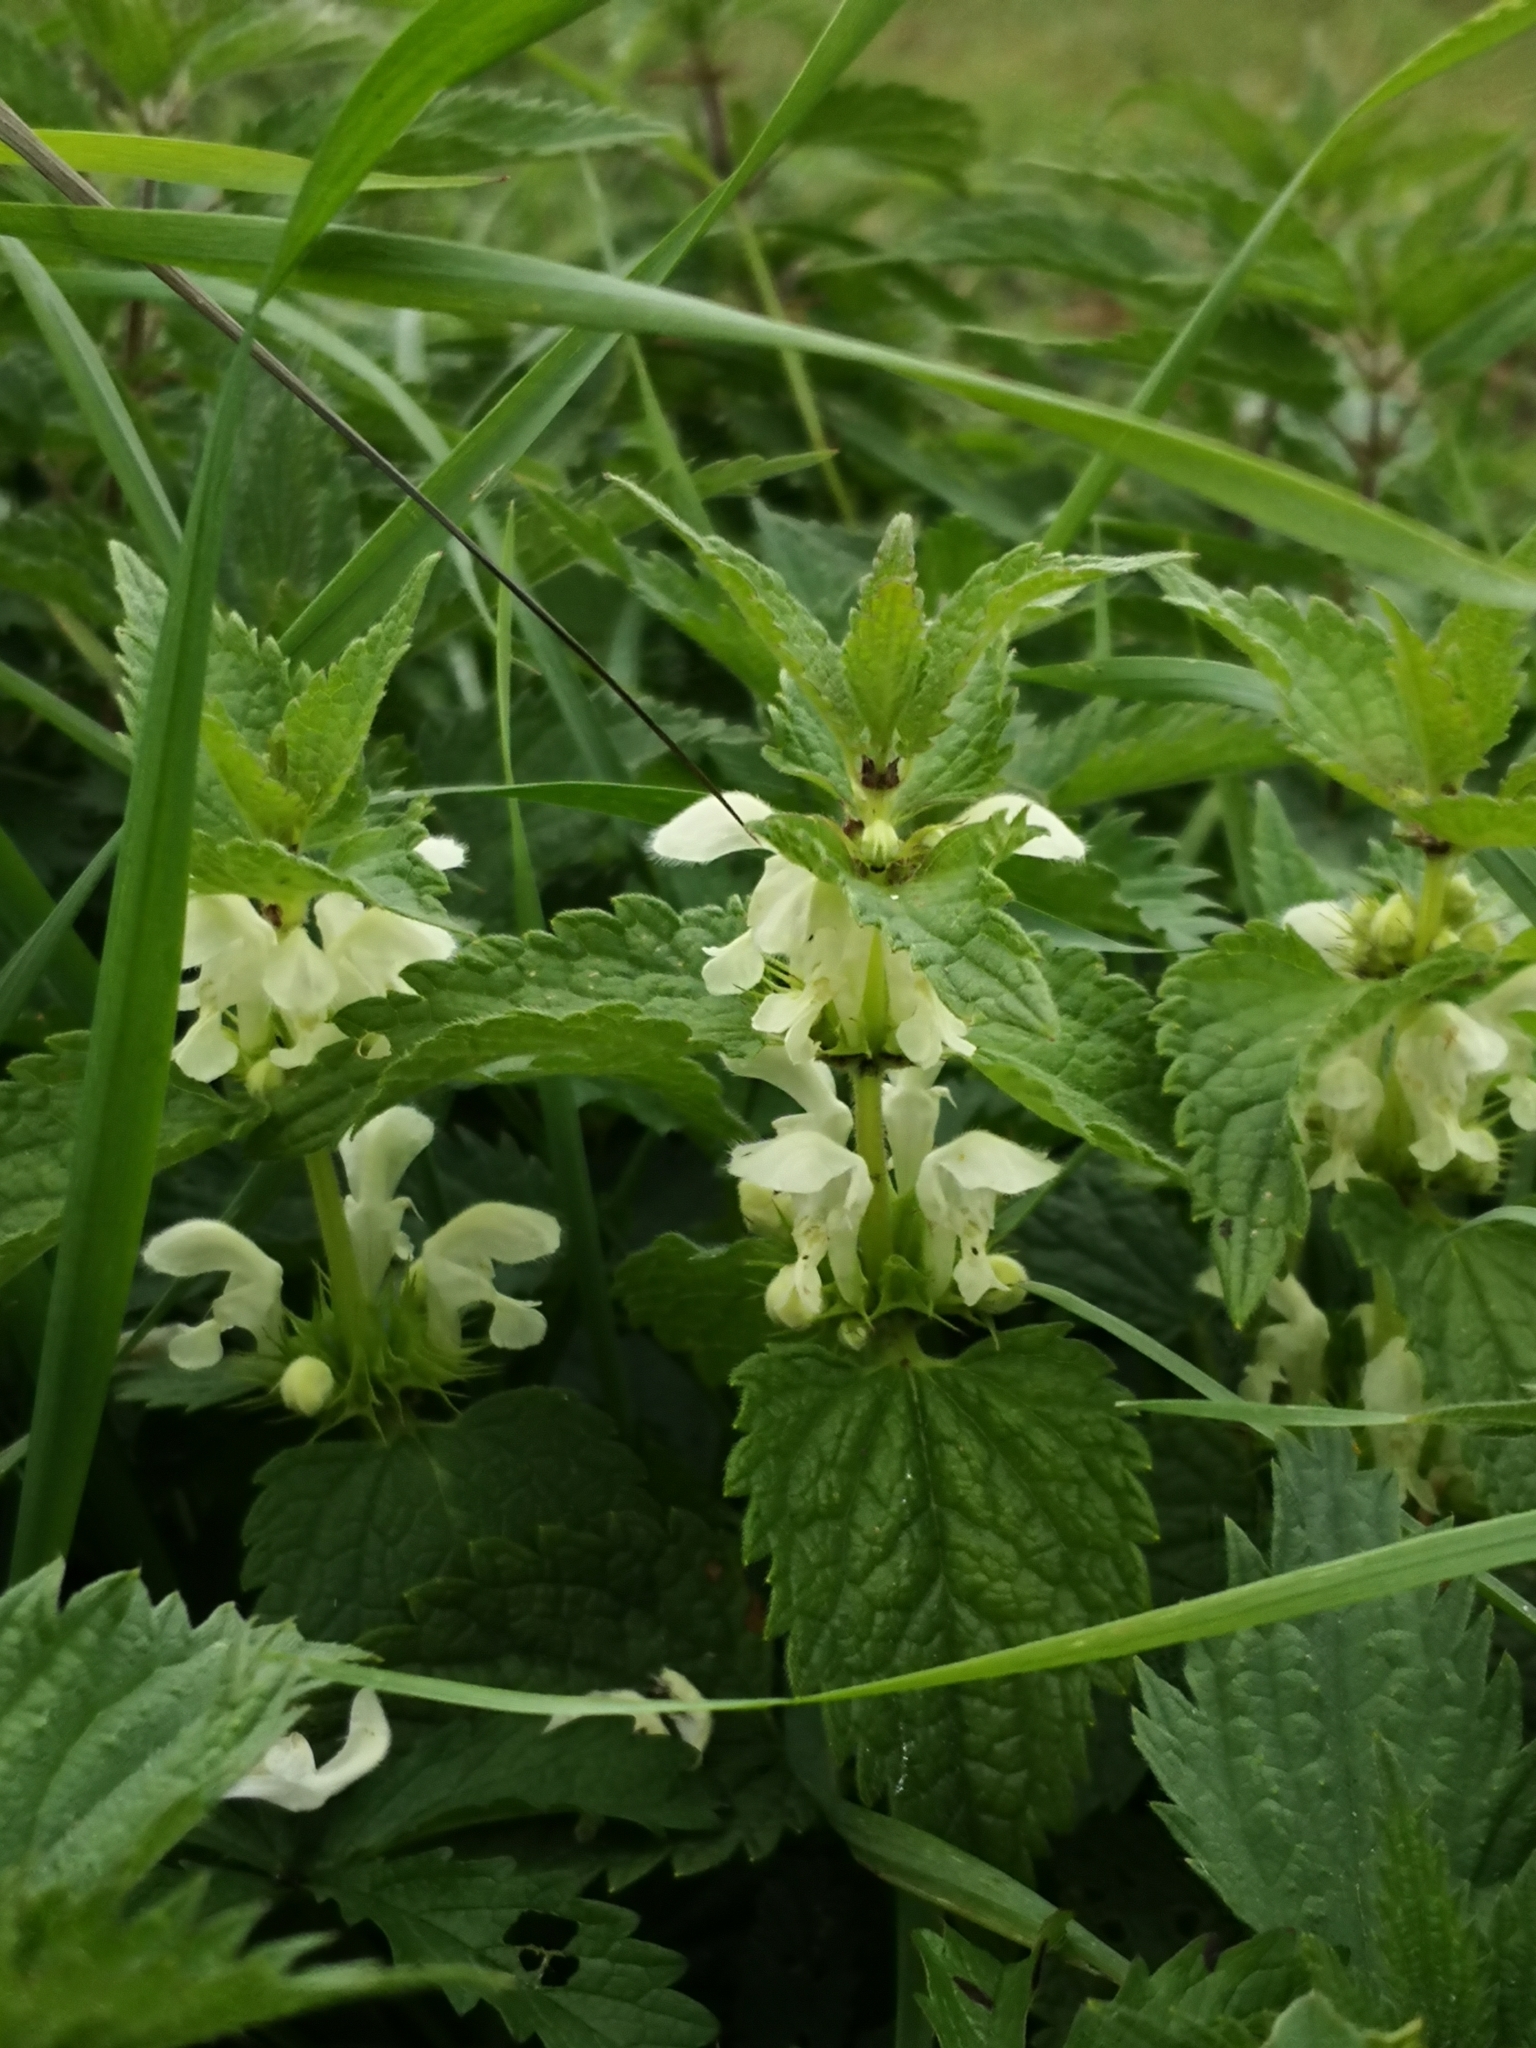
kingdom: Plantae
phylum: Tracheophyta
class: Magnoliopsida
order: Lamiales
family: Lamiaceae
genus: Lamium
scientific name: Lamium album
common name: White dead-nettle
